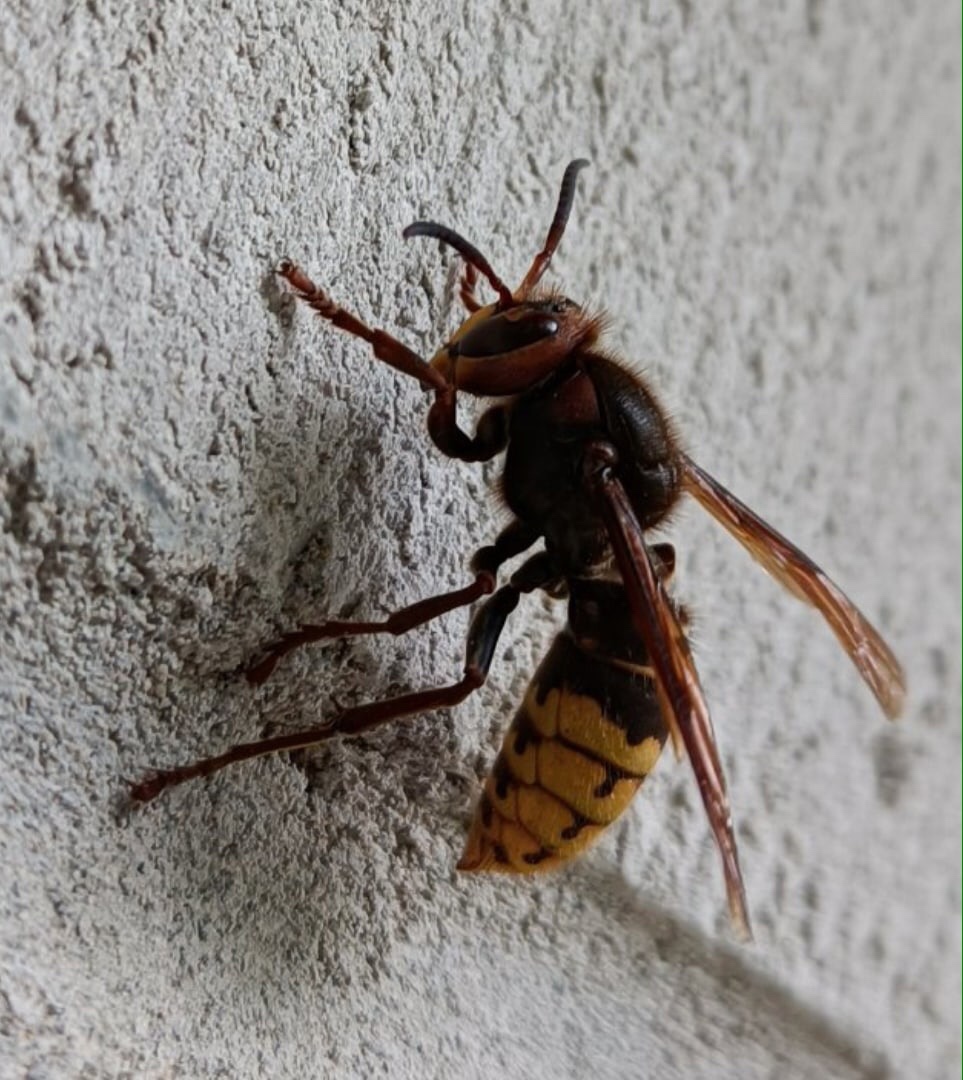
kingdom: Animalia
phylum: Arthropoda
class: Insecta
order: Hymenoptera
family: Vespidae
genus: Vespa
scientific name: Vespa crabro
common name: Hornet
